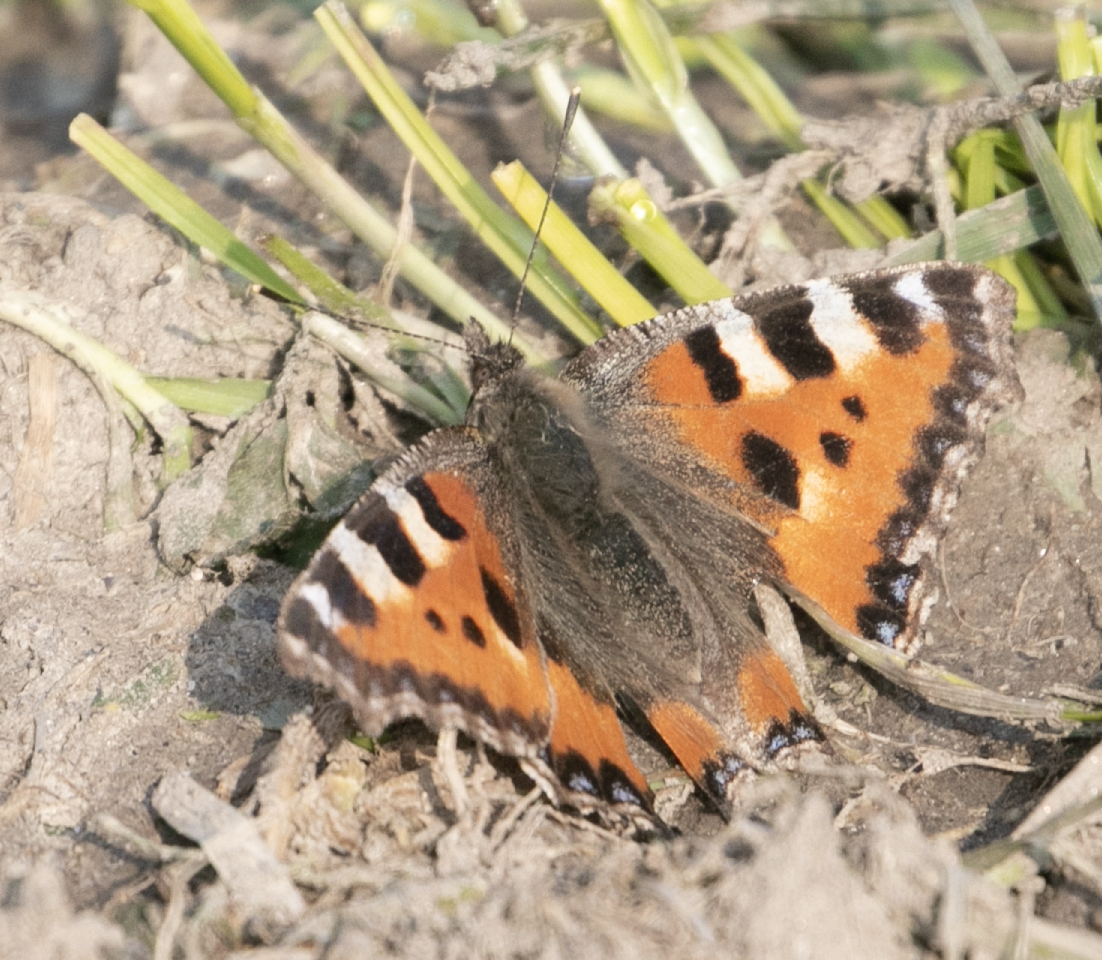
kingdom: Animalia
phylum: Arthropoda
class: Insecta
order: Lepidoptera
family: Nymphalidae
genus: Aglais
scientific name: Aglais urticae
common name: Small tortoiseshell
